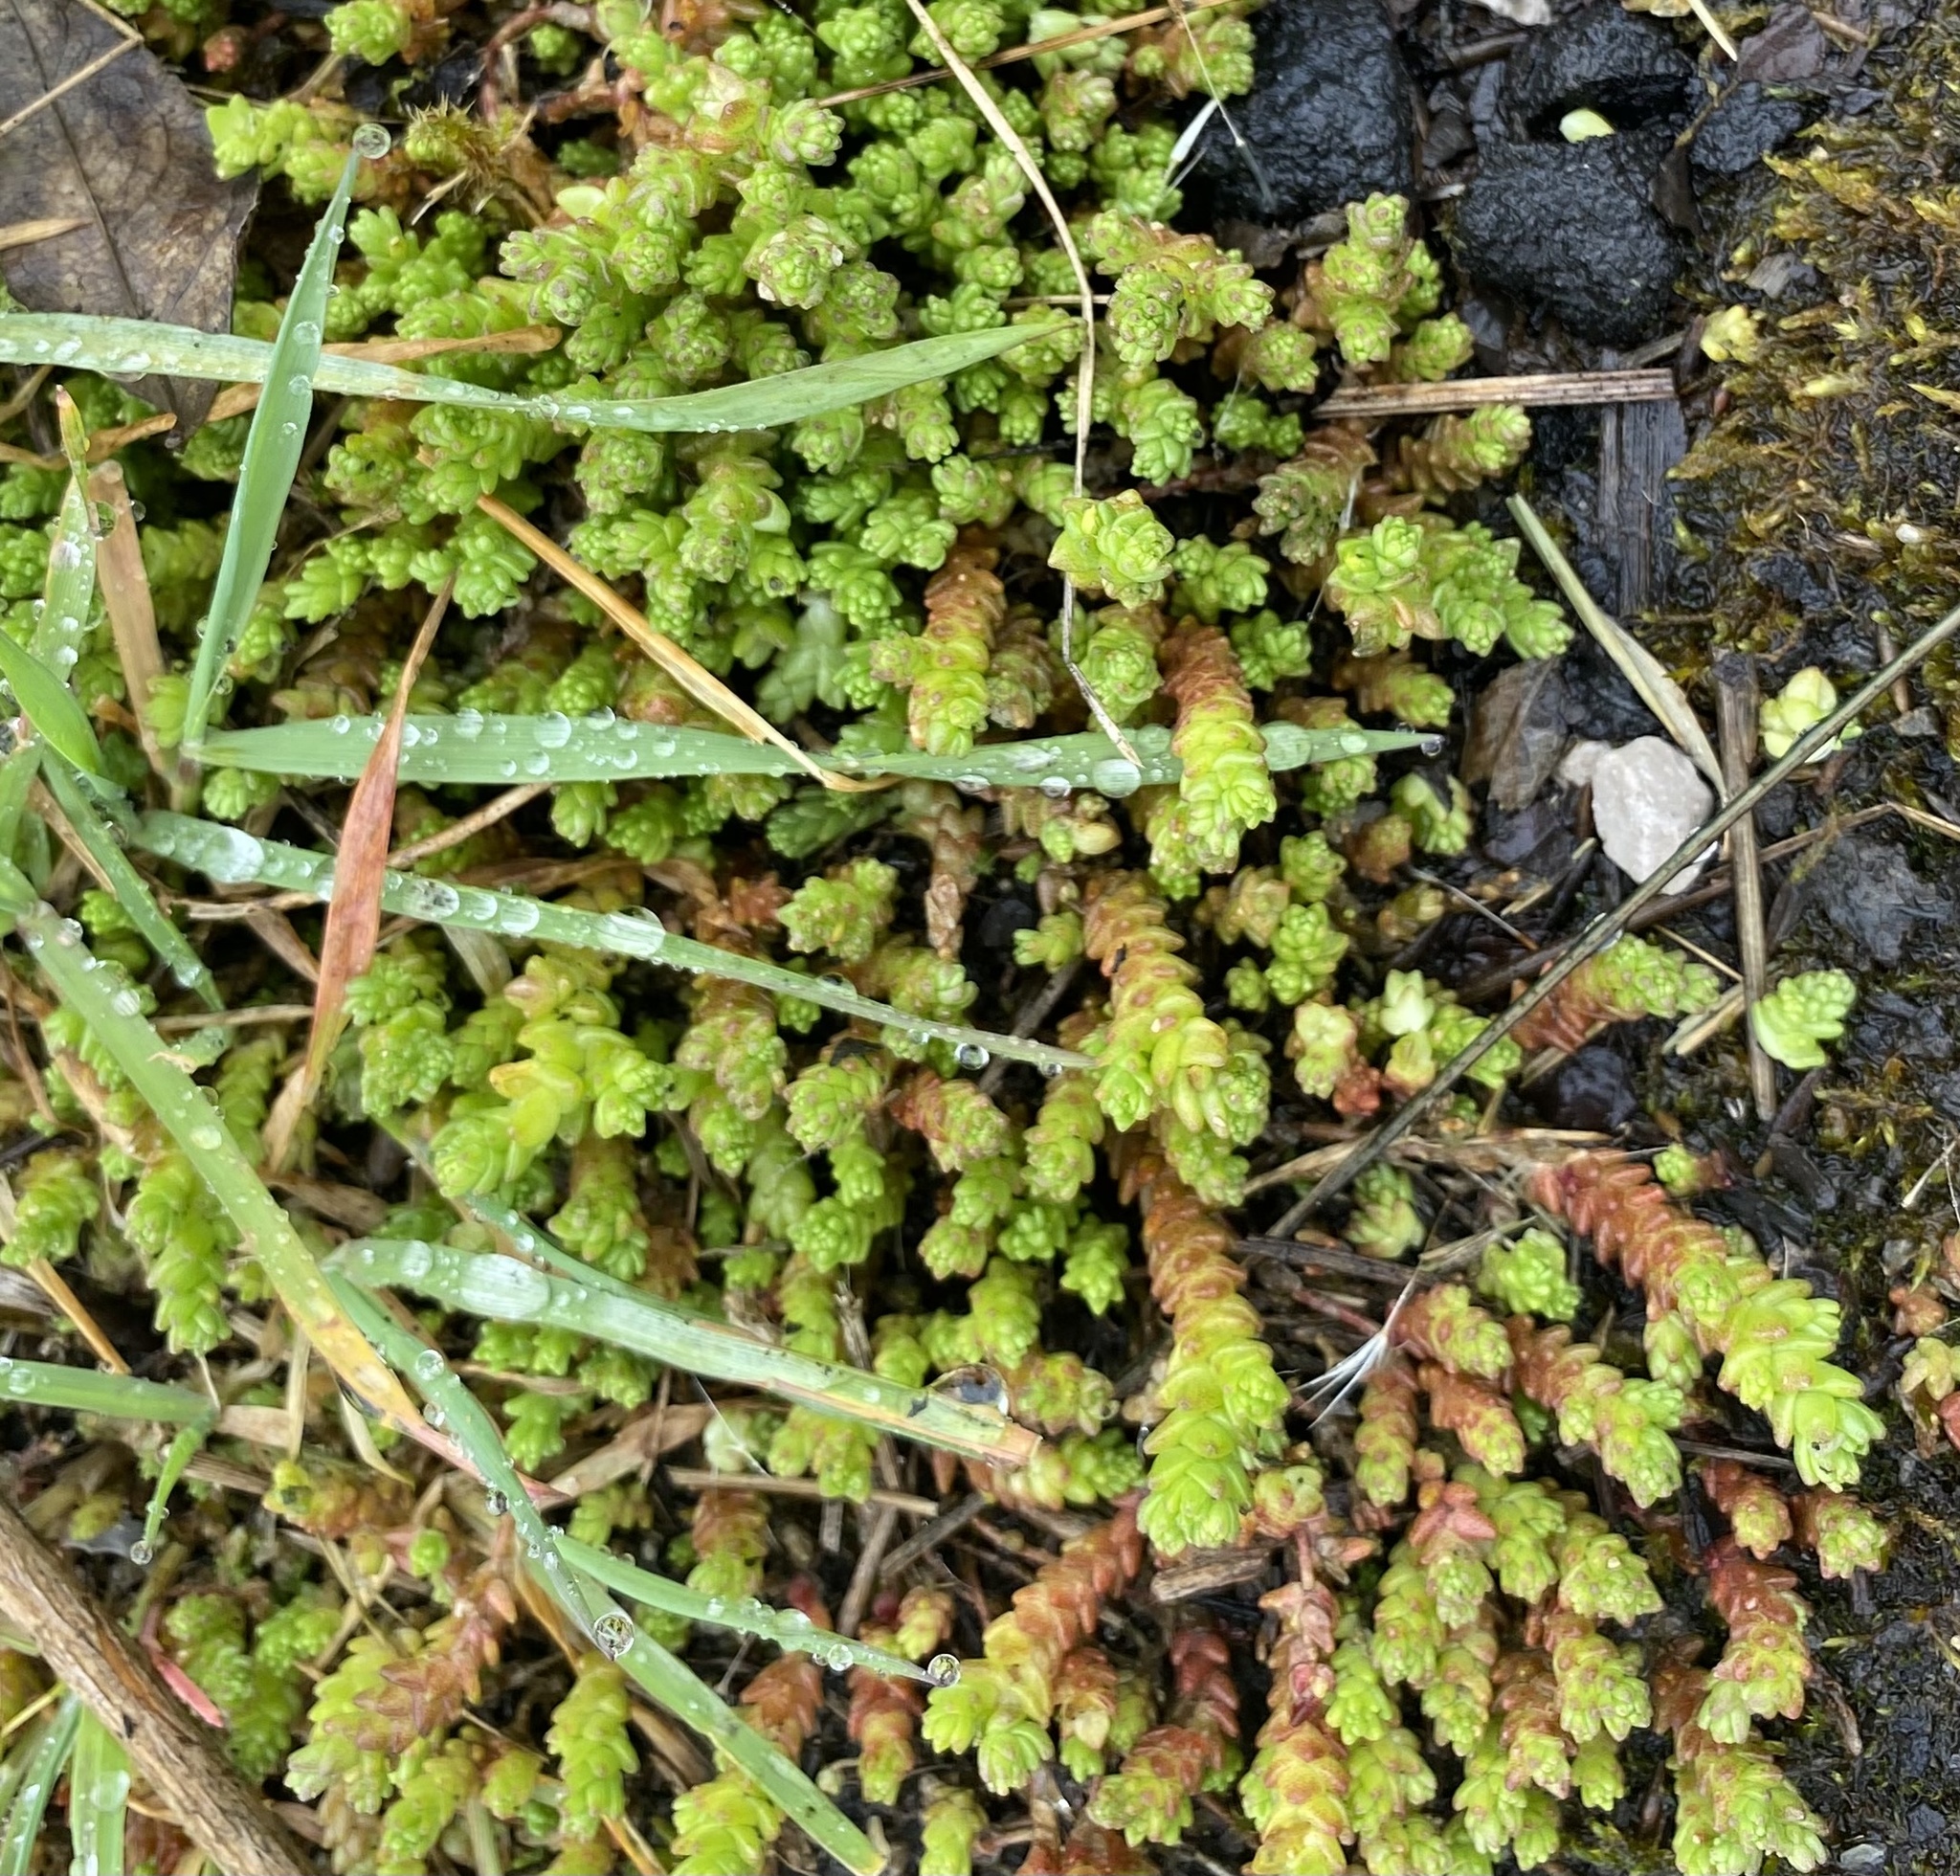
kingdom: Plantae
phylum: Tracheophyta
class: Magnoliopsida
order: Saxifragales
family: Crassulaceae
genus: Sedum
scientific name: Sedum acre
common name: Biting stonecrop
